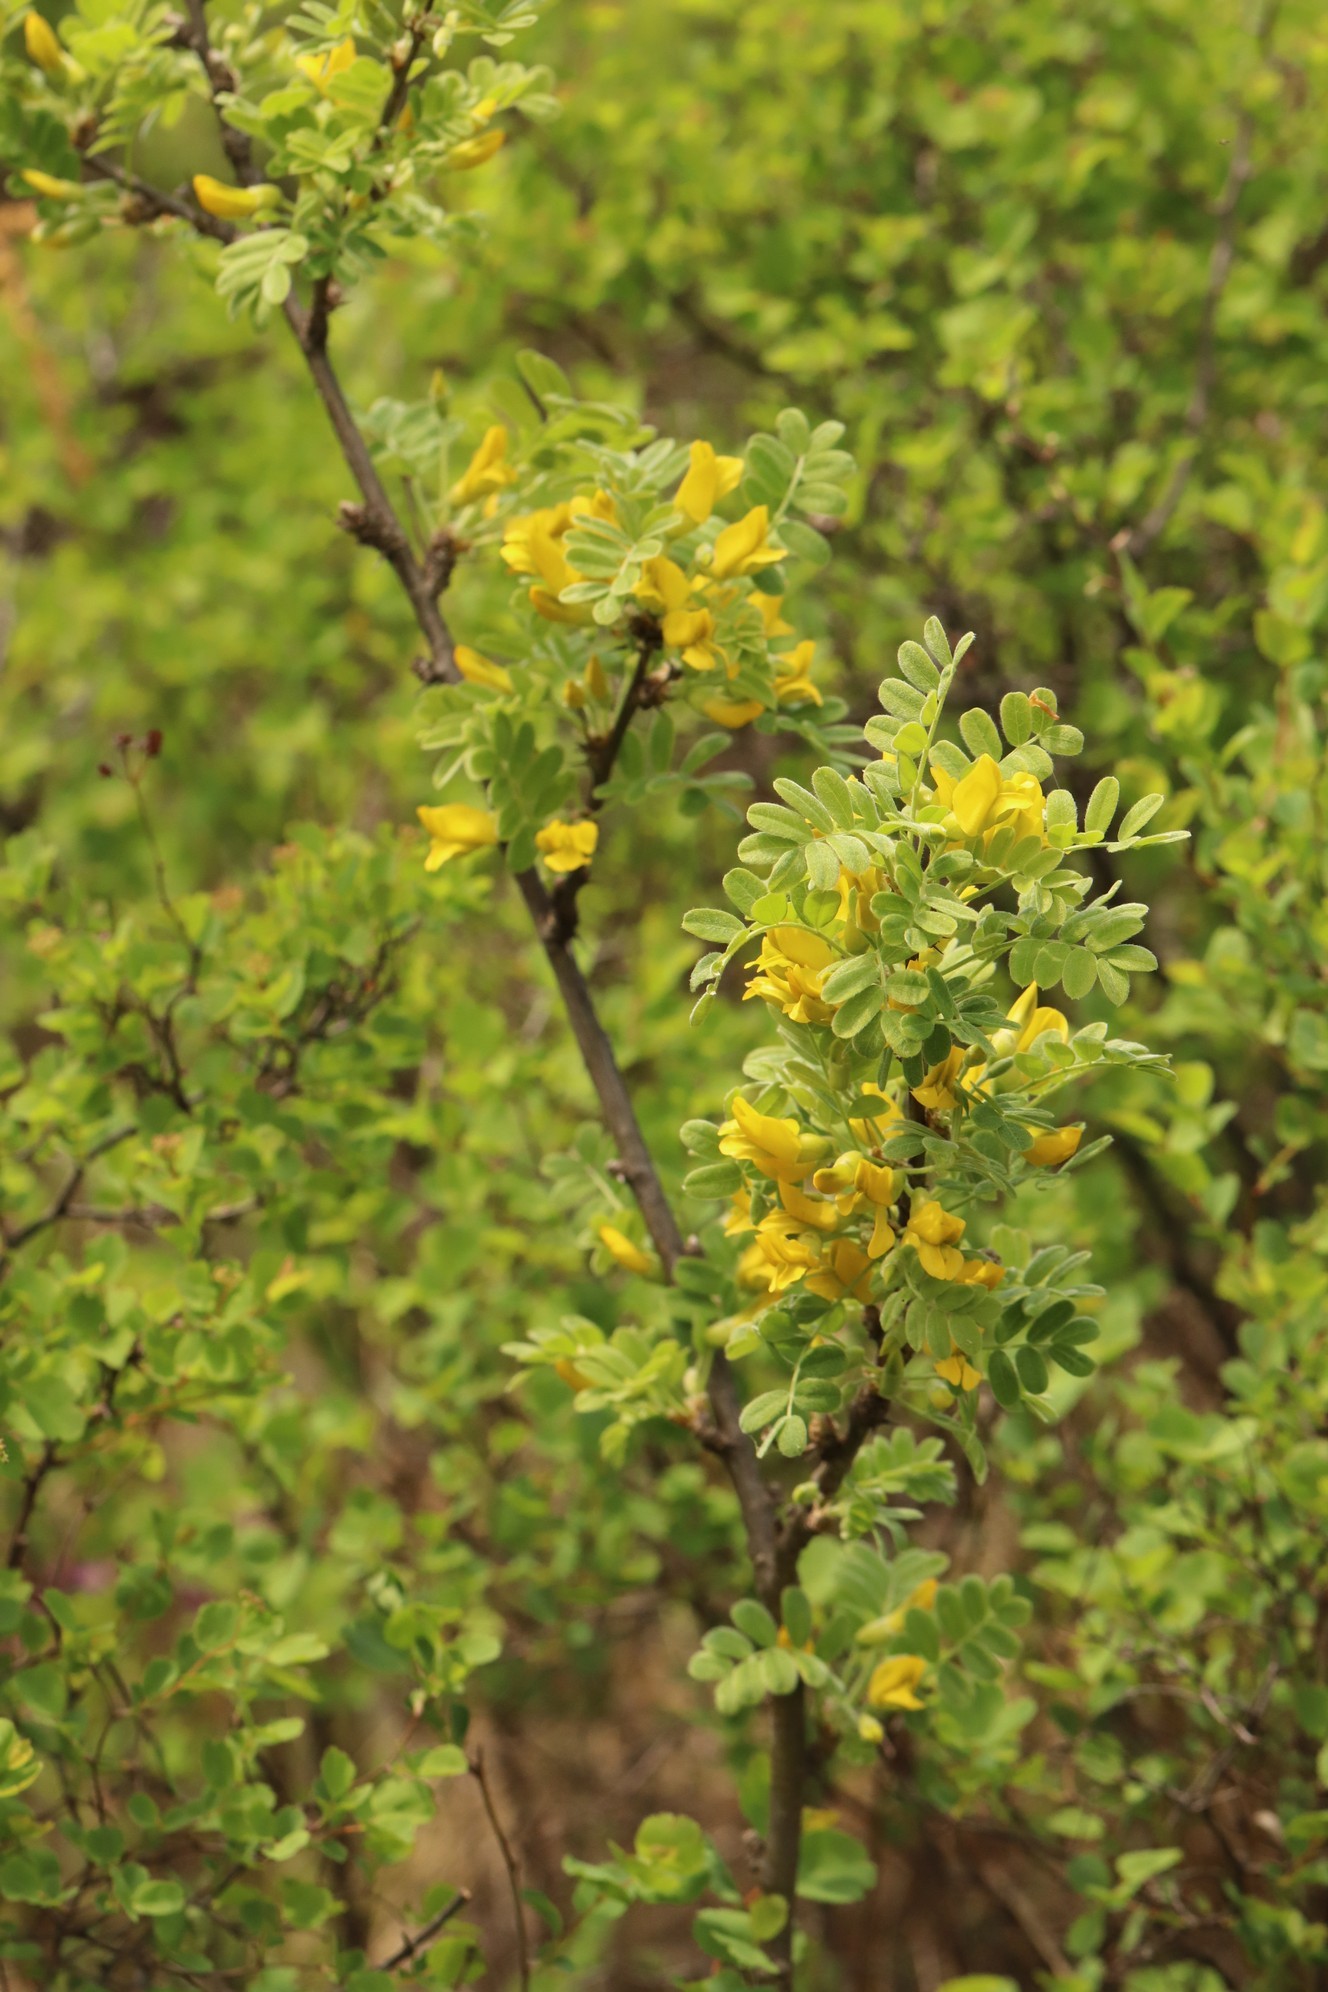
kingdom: Plantae
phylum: Tracheophyta
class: Magnoliopsida
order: Fabales
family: Fabaceae
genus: Caragana
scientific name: Caragana arborescens
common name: Siberian peashrub
